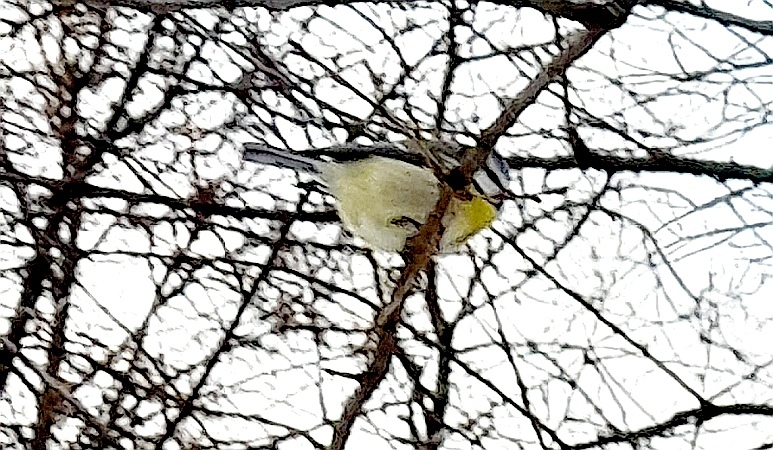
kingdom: Animalia
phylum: Chordata
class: Aves
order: Passeriformes
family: Paridae
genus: Cyanistes
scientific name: Cyanistes caeruleus
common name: Eurasian blue tit
